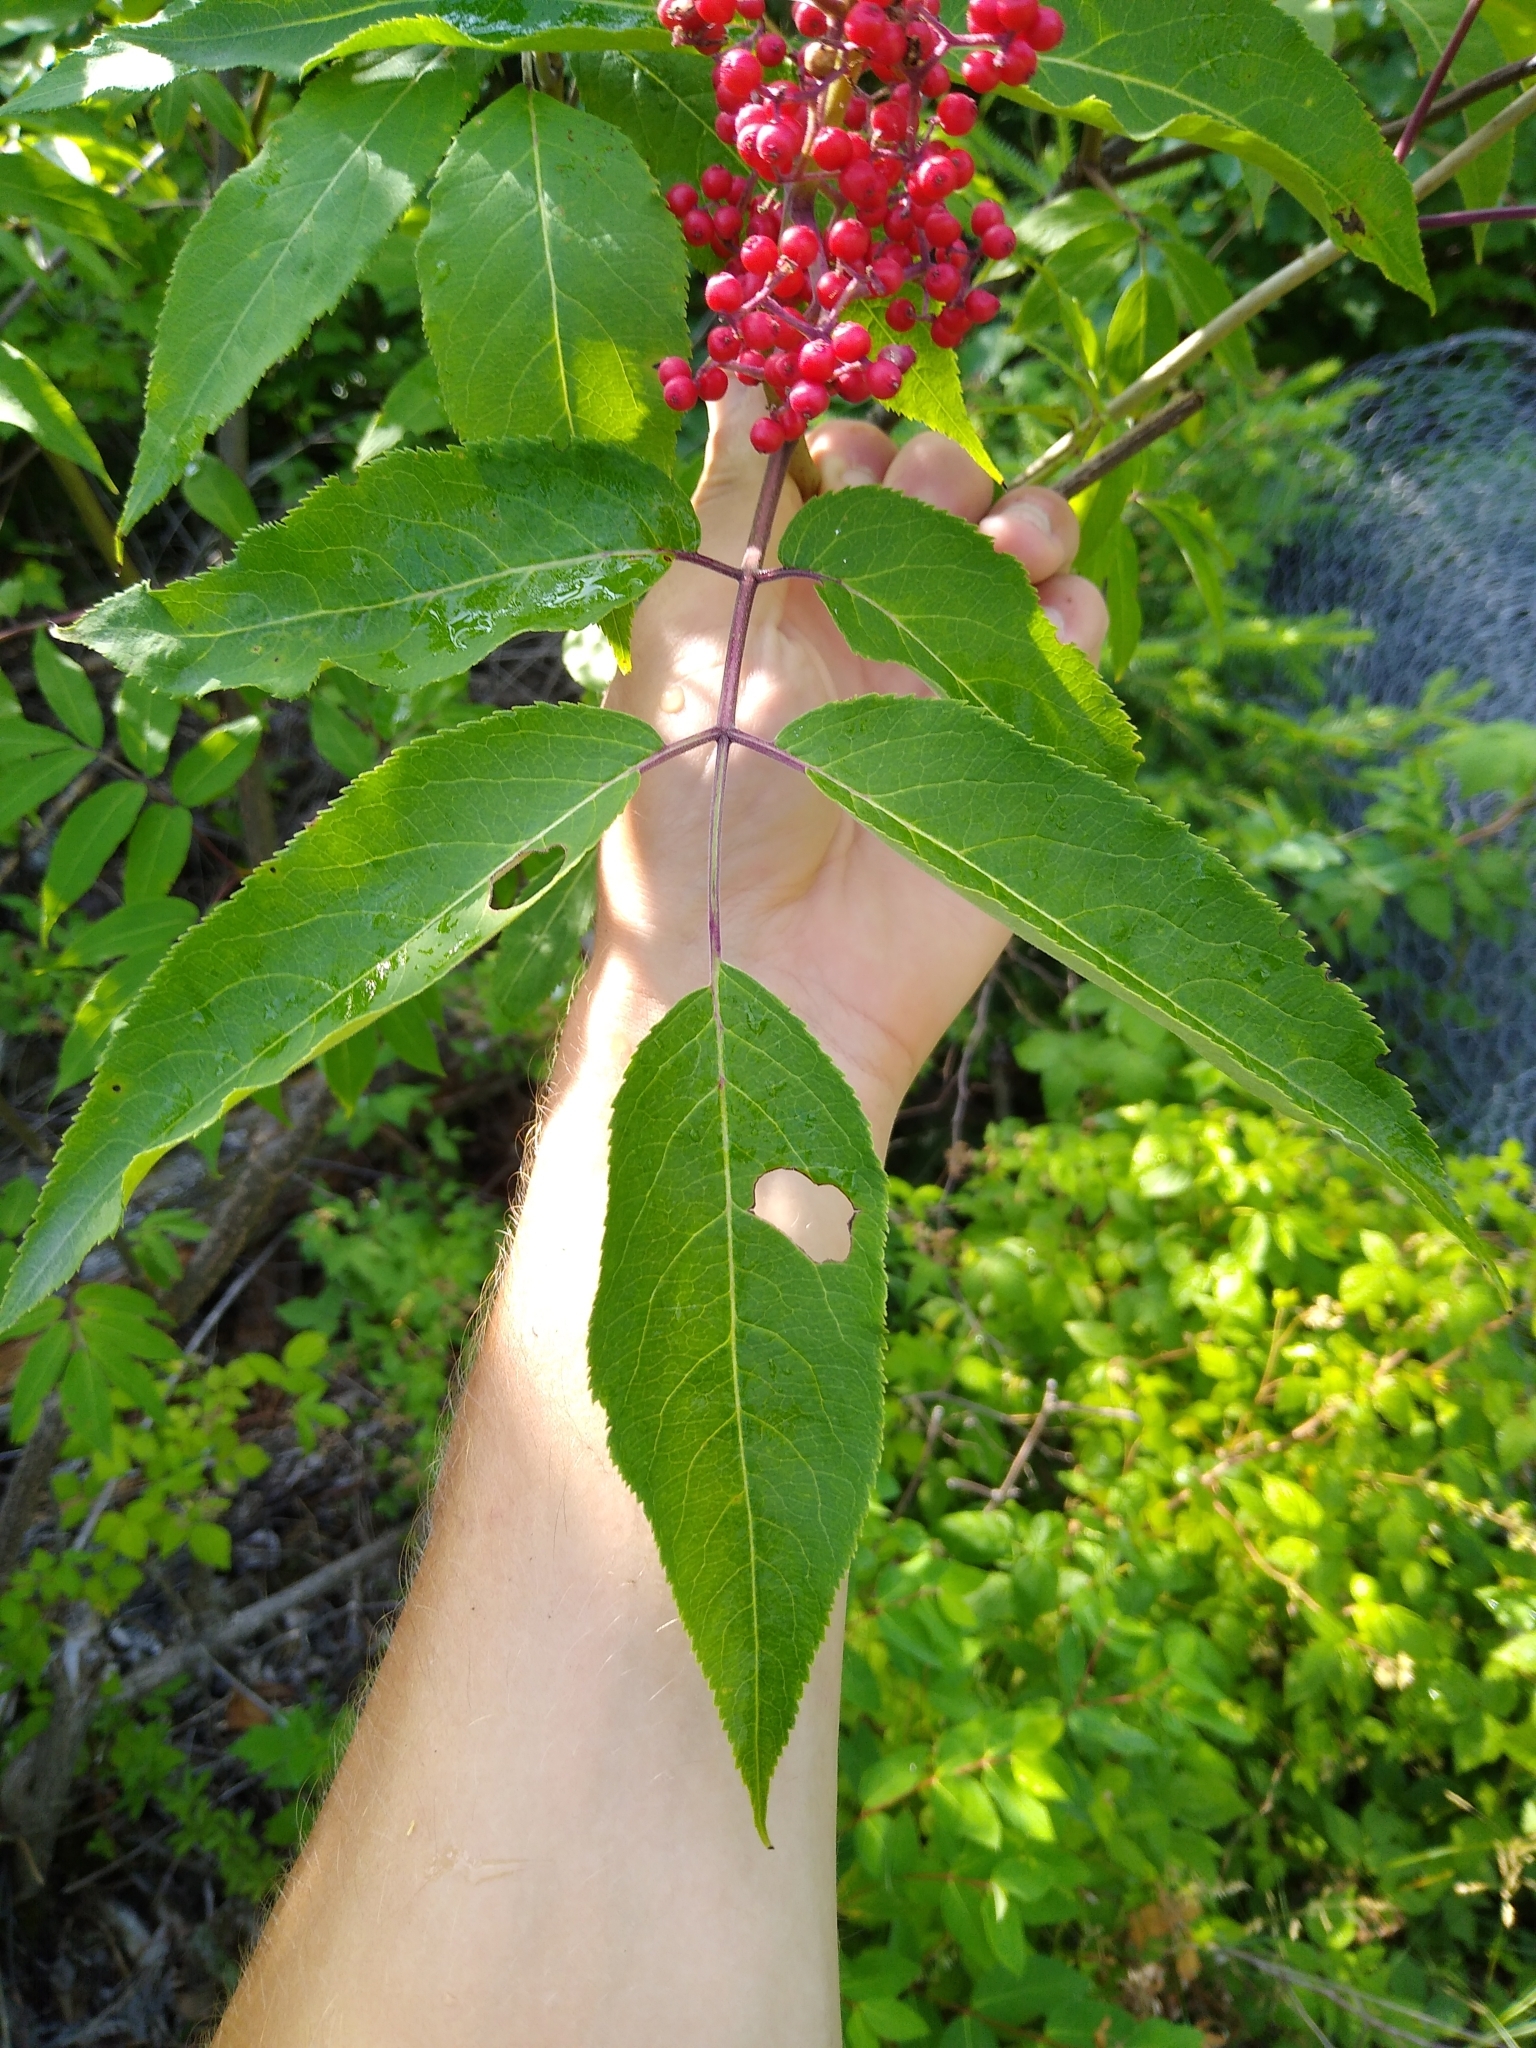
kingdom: Plantae
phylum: Tracheophyta
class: Magnoliopsida
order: Dipsacales
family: Viburnaceae
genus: Sambucus
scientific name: Sambucus racemosa
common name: Red-berried elder
